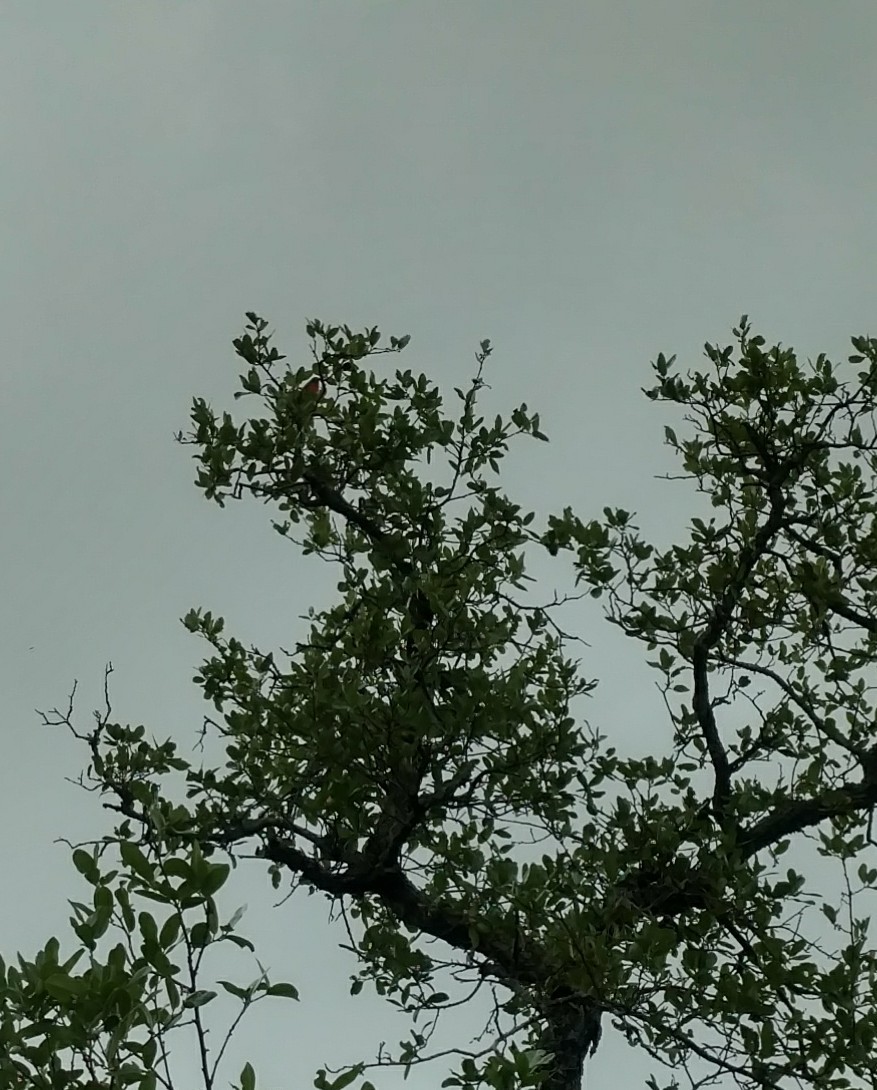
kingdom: Animalia
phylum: Chordata
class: Aves
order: Passeriformes
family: Cardinalidae
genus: Passerina
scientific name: Passerina ciris
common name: Painted bunting
